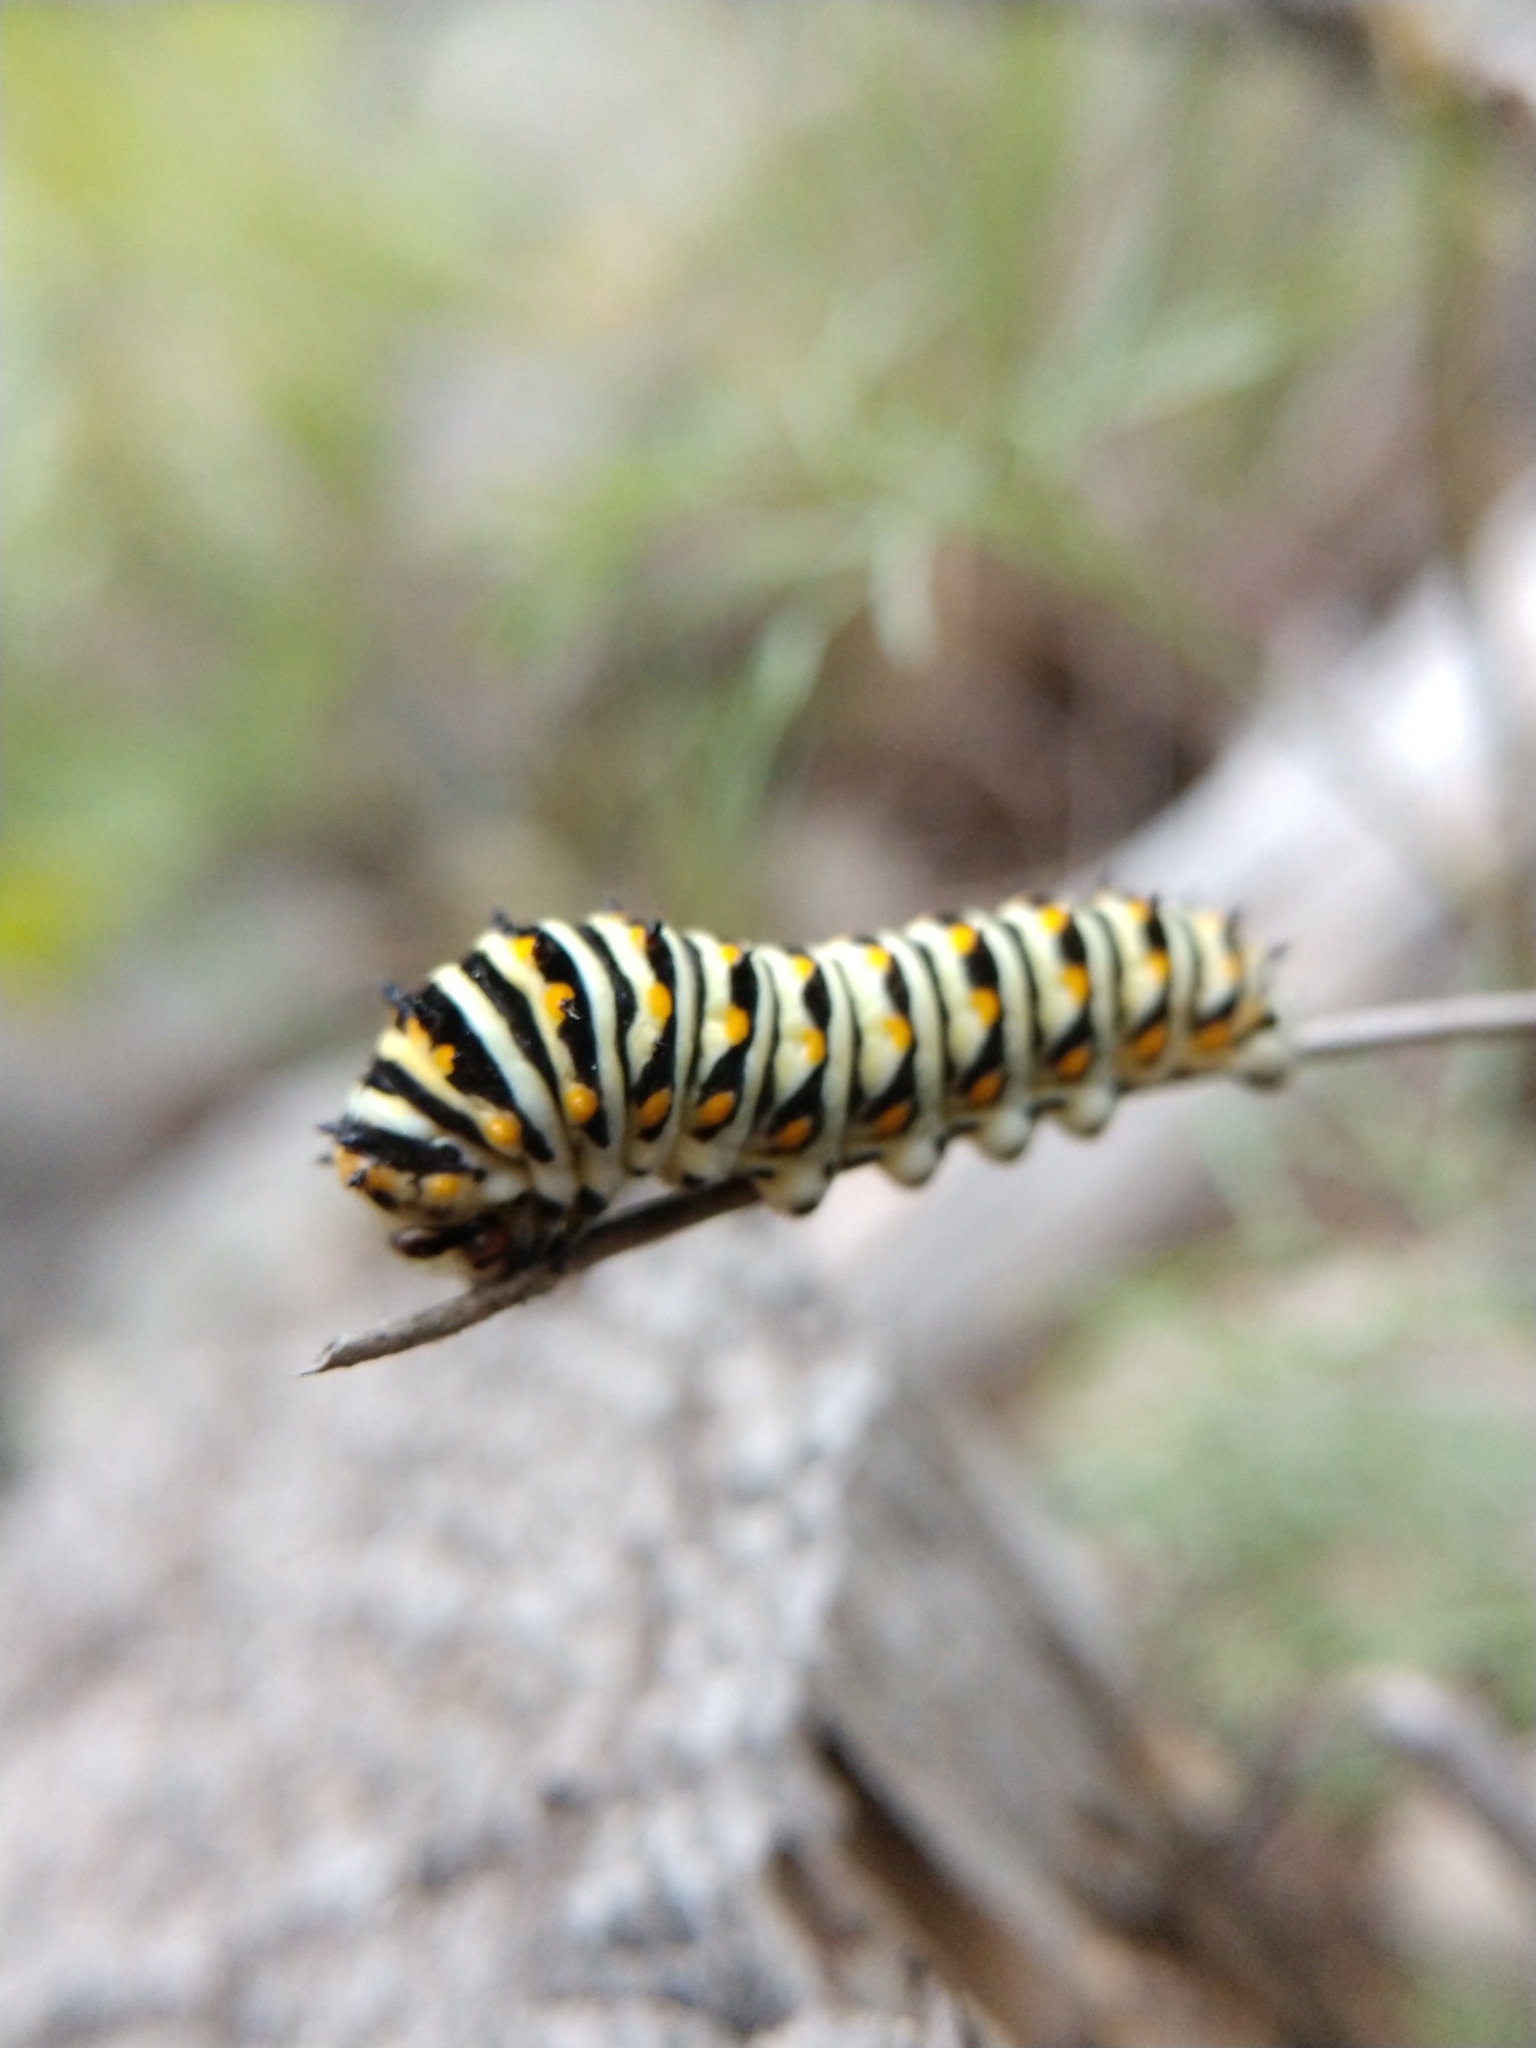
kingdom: Animalia
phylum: Arthropoda
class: Insecta
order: Lepidoptera
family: Papilionidae
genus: Papilio
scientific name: Papilio polyxenes
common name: Black swallowtail
